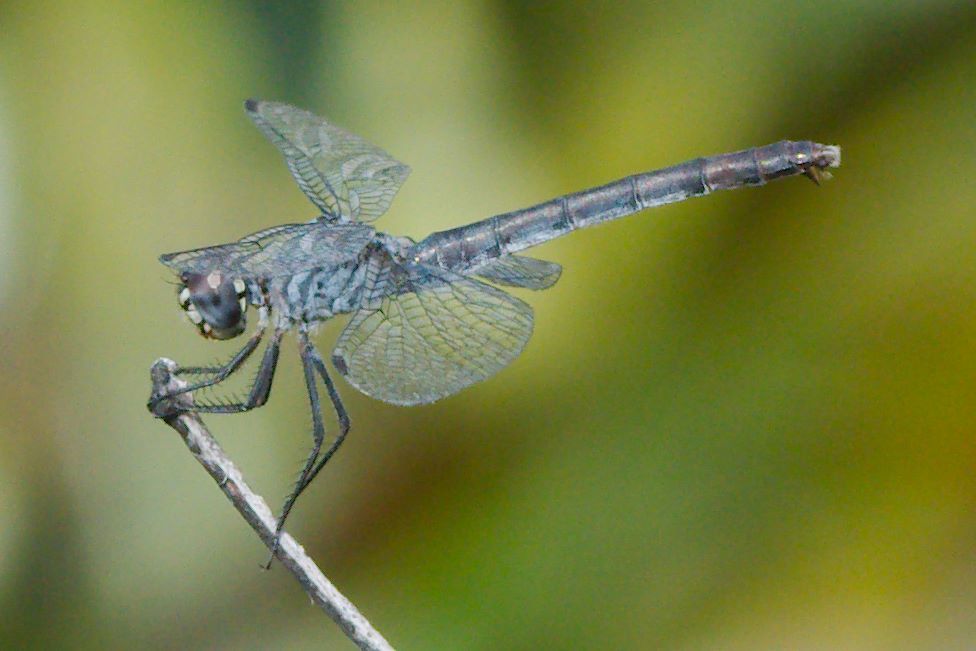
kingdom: Animalia
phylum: Arthropoda
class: Insecta
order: Odonata
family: Libellulidae
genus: Erythrodiplax
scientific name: Erythrodiplax berenice
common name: Seaside dragonlet
